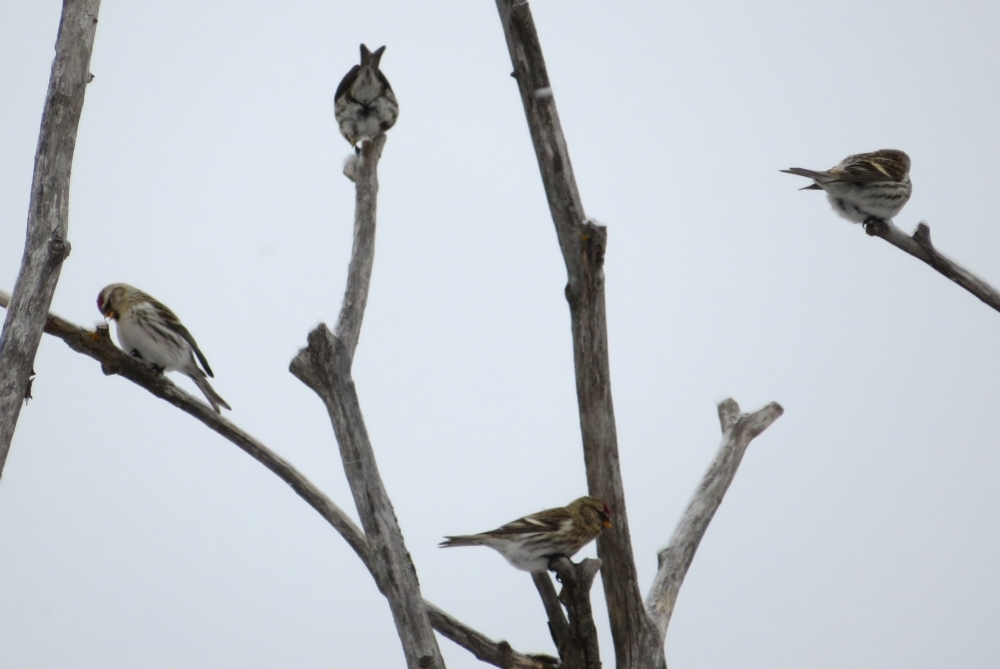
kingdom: Animalia
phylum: Chordata
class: Aves
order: Passeriformes
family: Fringillidae
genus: Acanthis
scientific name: Acanthis flammea
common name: Common redpoll
